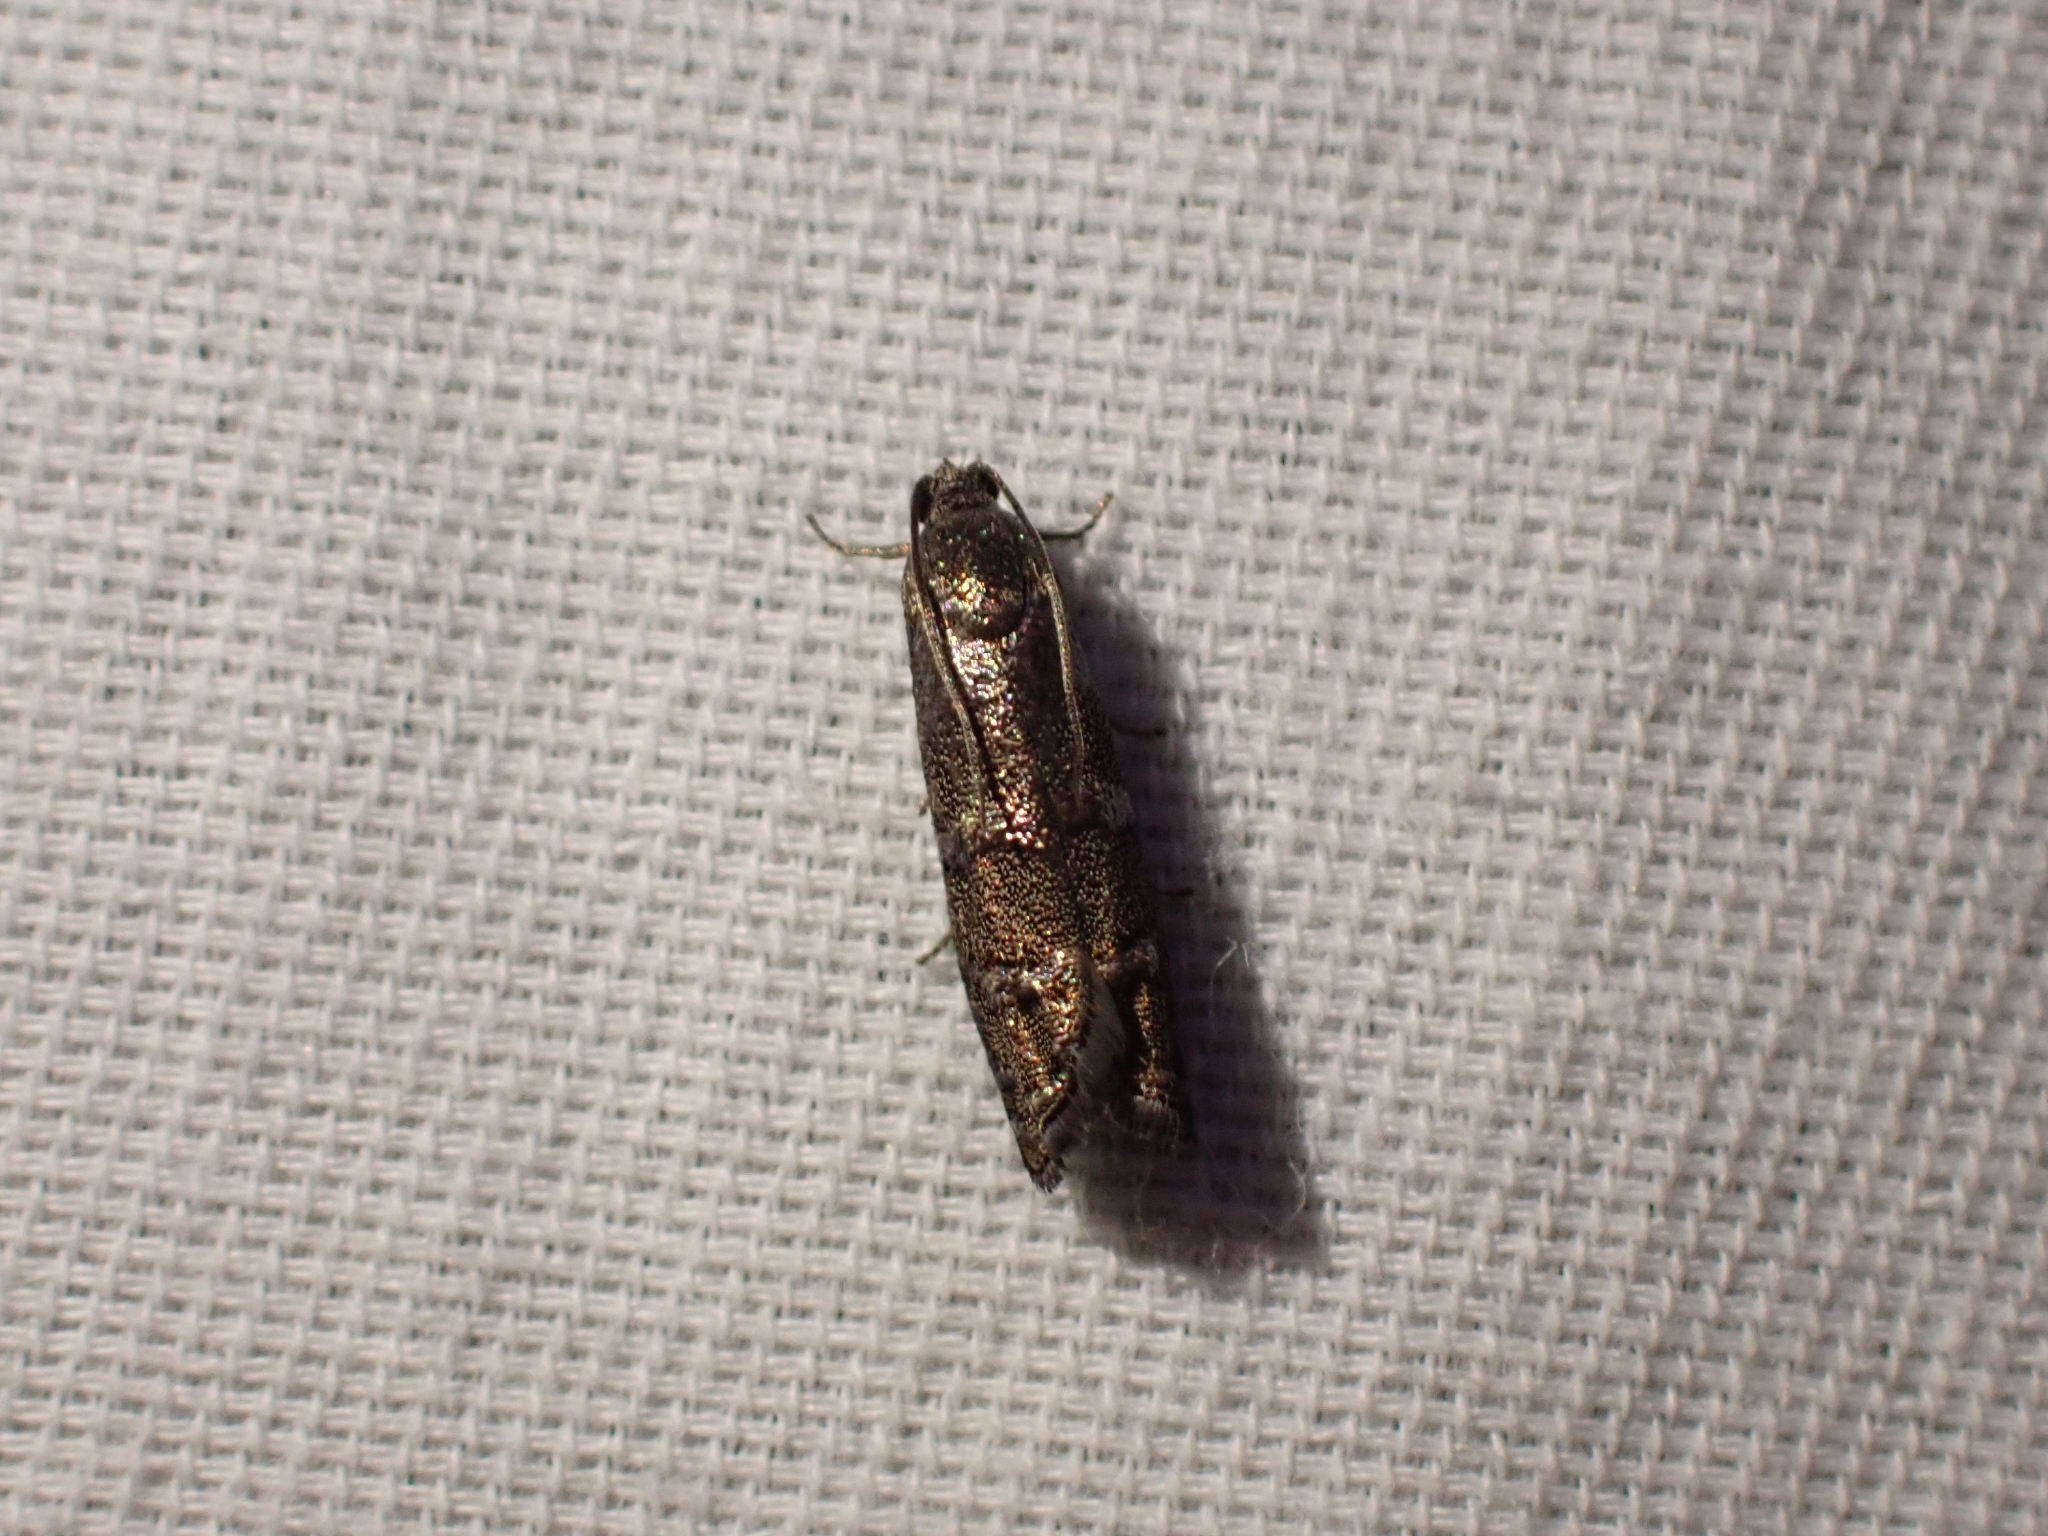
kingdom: Animalia
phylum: Arthropoda
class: Insecta
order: Lepidoptera
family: Tortricidae
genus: Cydia
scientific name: Cydia piperana
